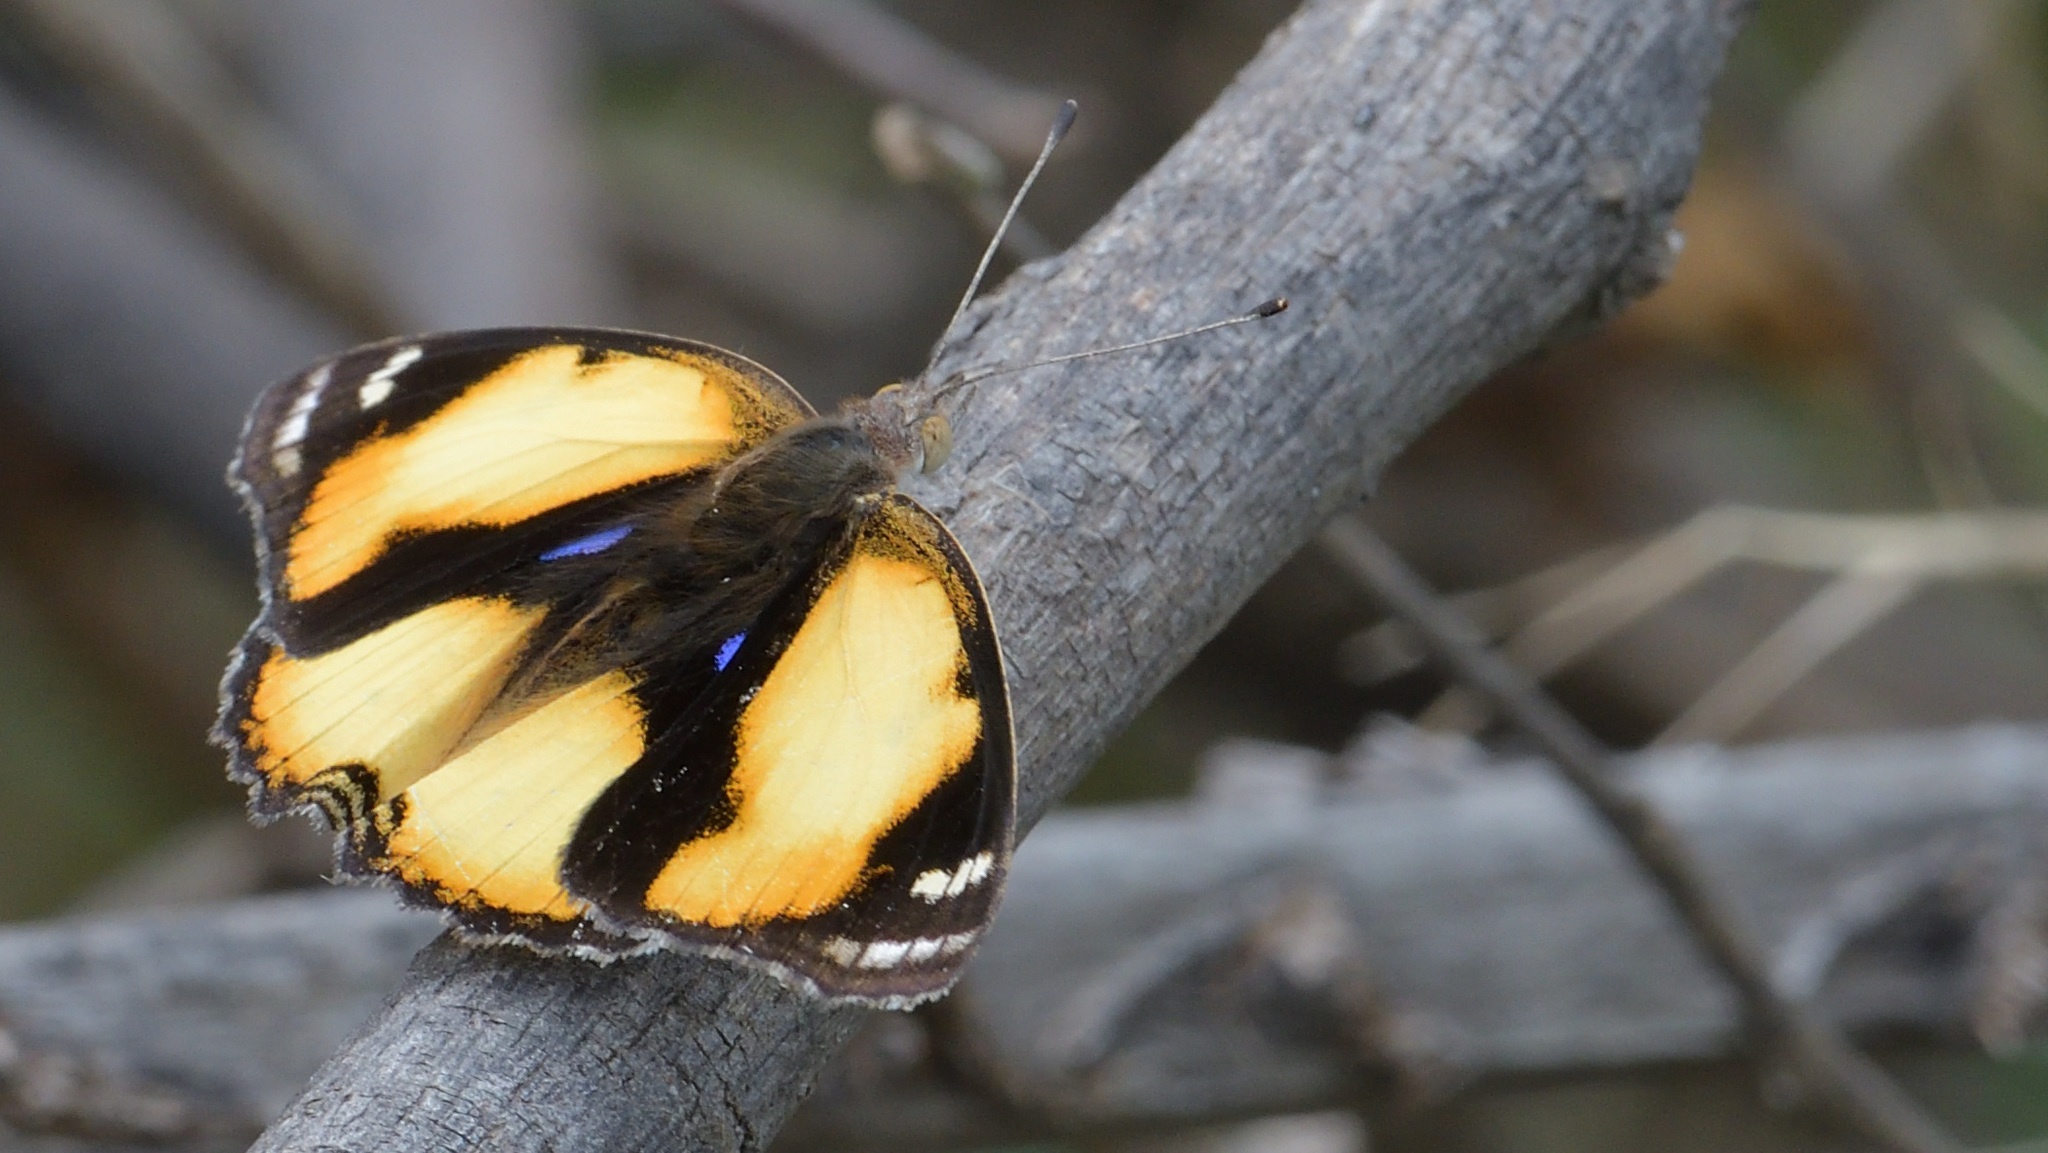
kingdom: Animalia
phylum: Arthropoda
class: Insecta
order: Lepidoptera
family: Nymphalidae
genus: Junonia
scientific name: Junonia hierta
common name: Yellow pansy
